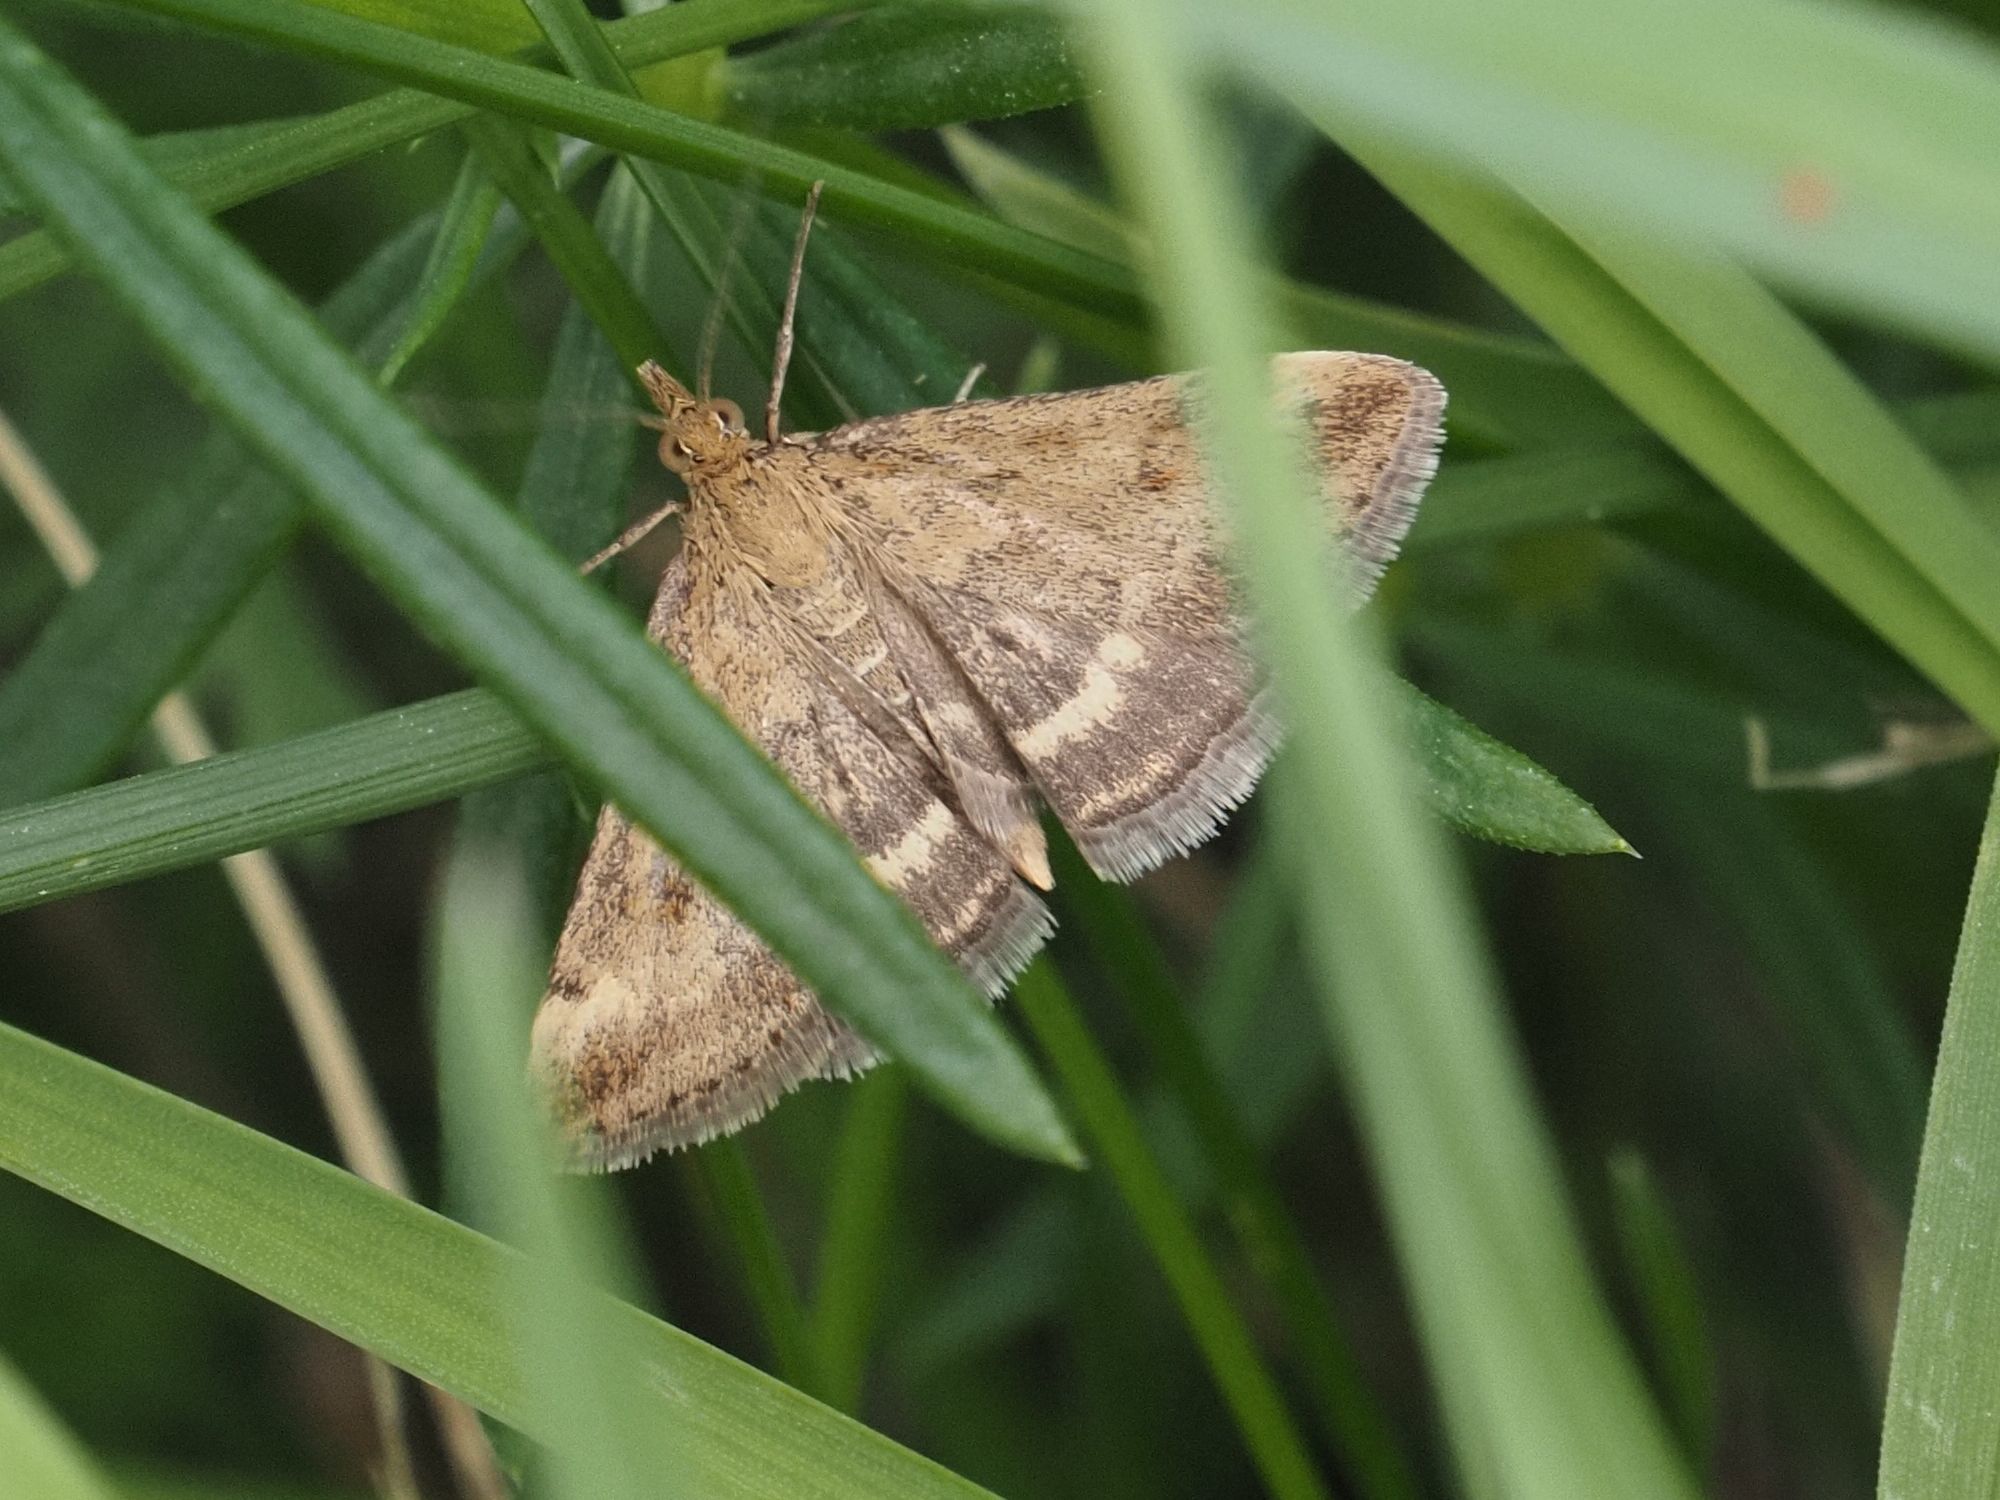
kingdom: Animalia
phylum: Arthropoda
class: Insecta
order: Lepidoptera
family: Crambidae
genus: Pyrausta
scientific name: Pyrausta despicata
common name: Straw-barred pearl
